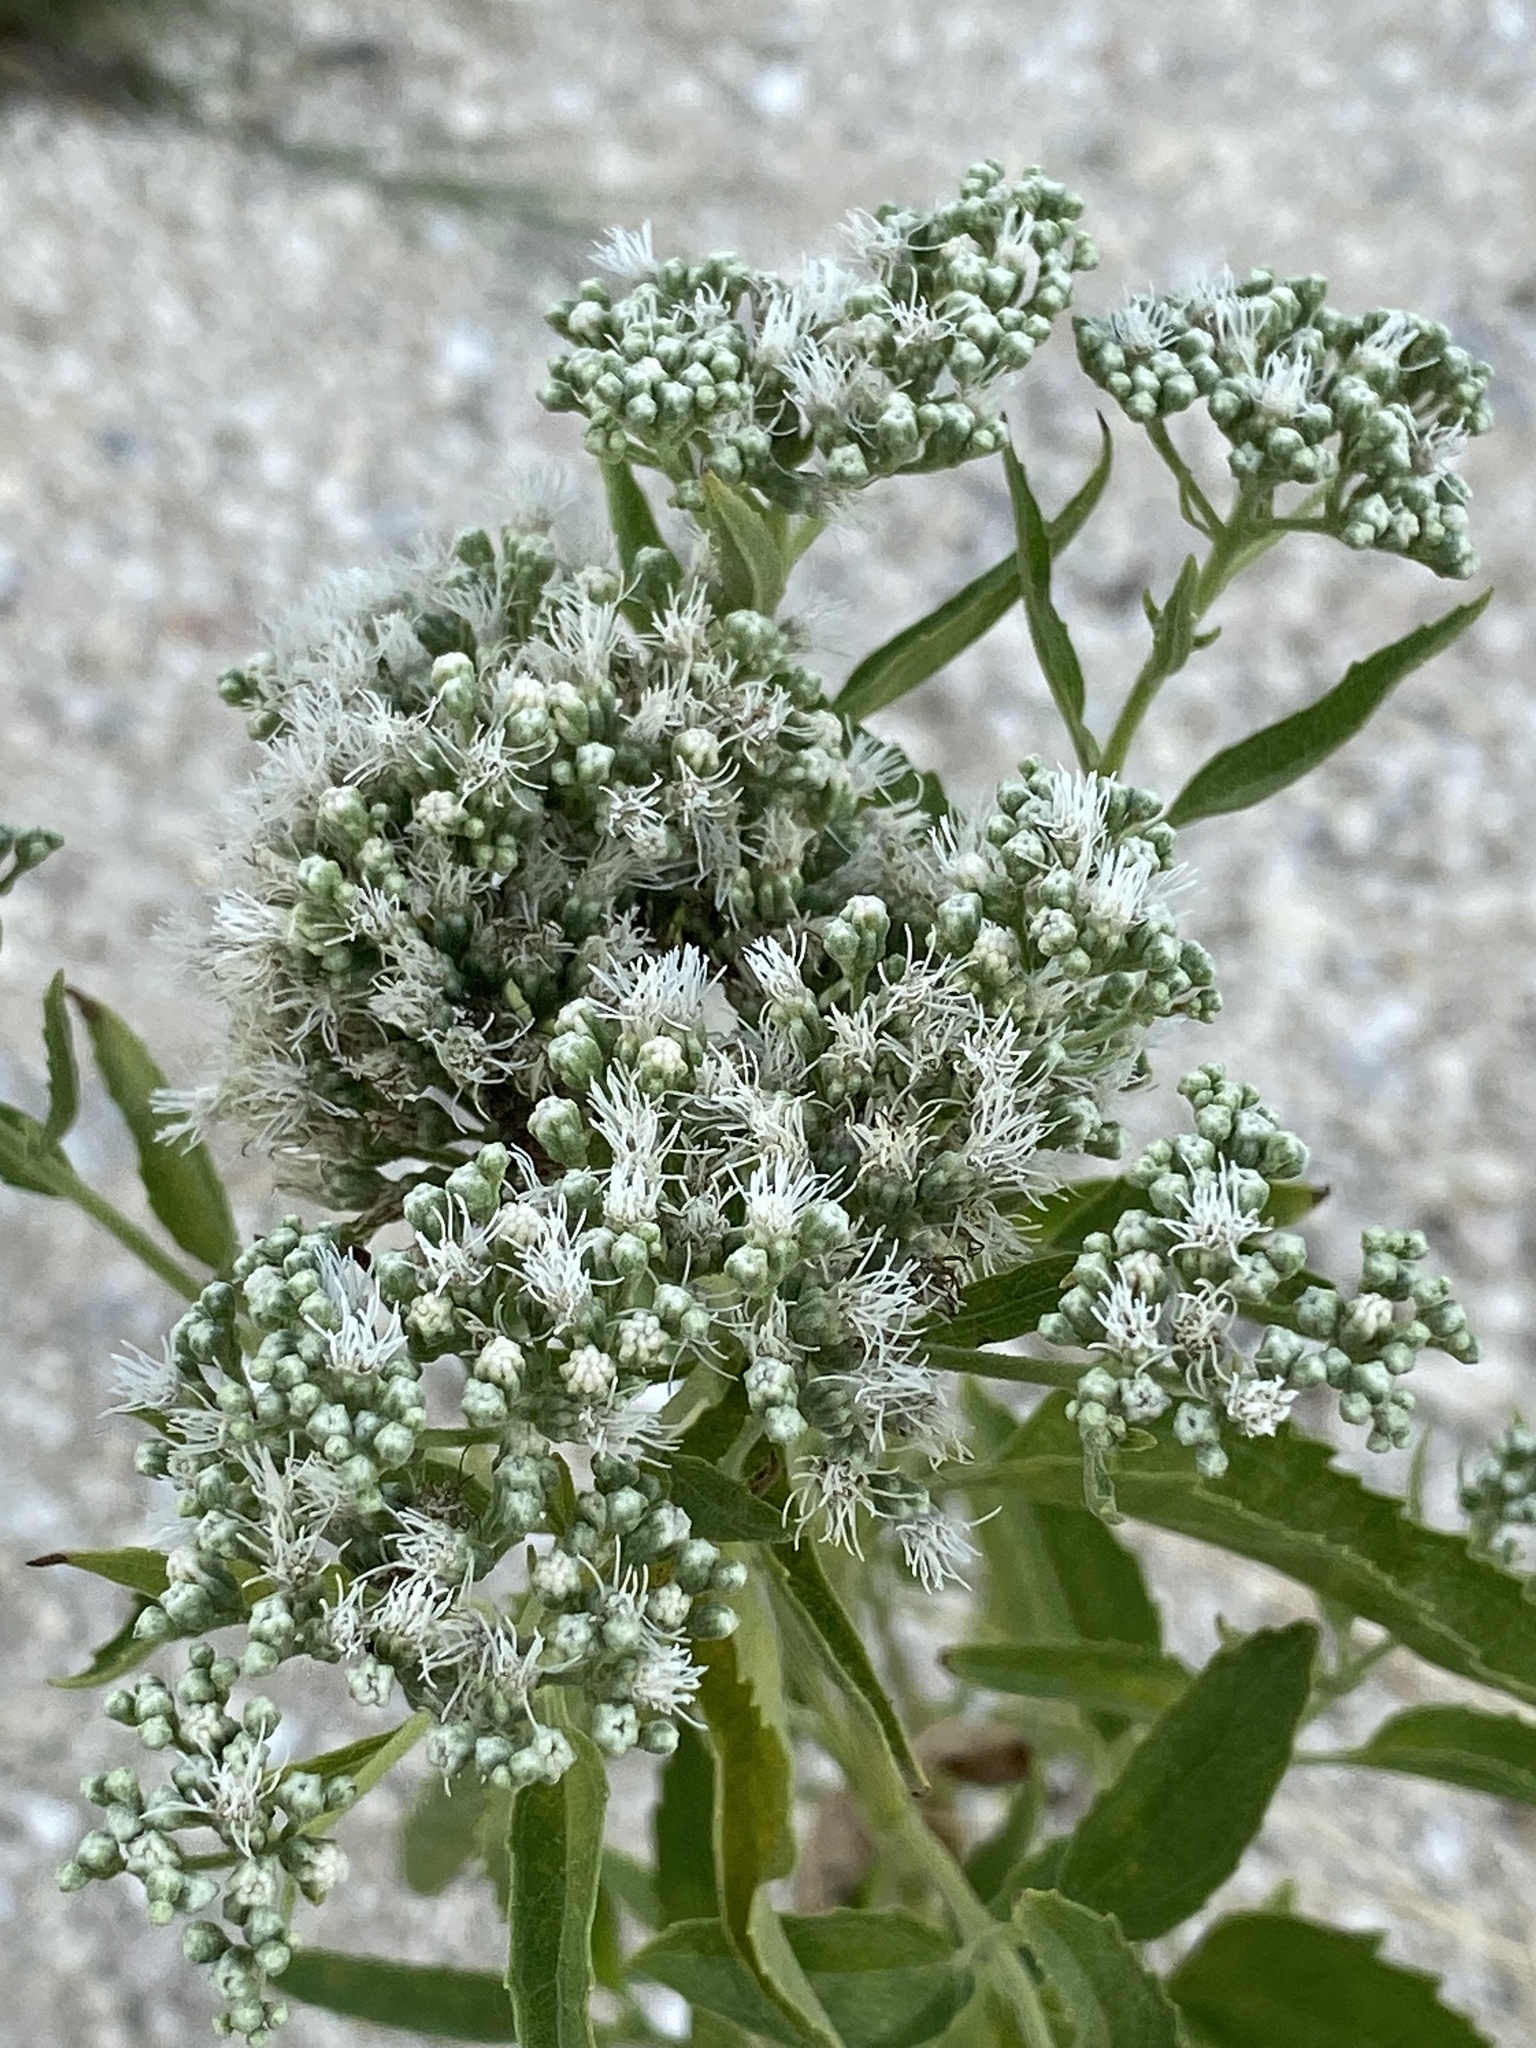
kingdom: Plantae
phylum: Tracheophyta
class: Magnoliopsida
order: Asterales
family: Asteraceae
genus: Eupatorium
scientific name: Eupatorium serotinum
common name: Late boneset
